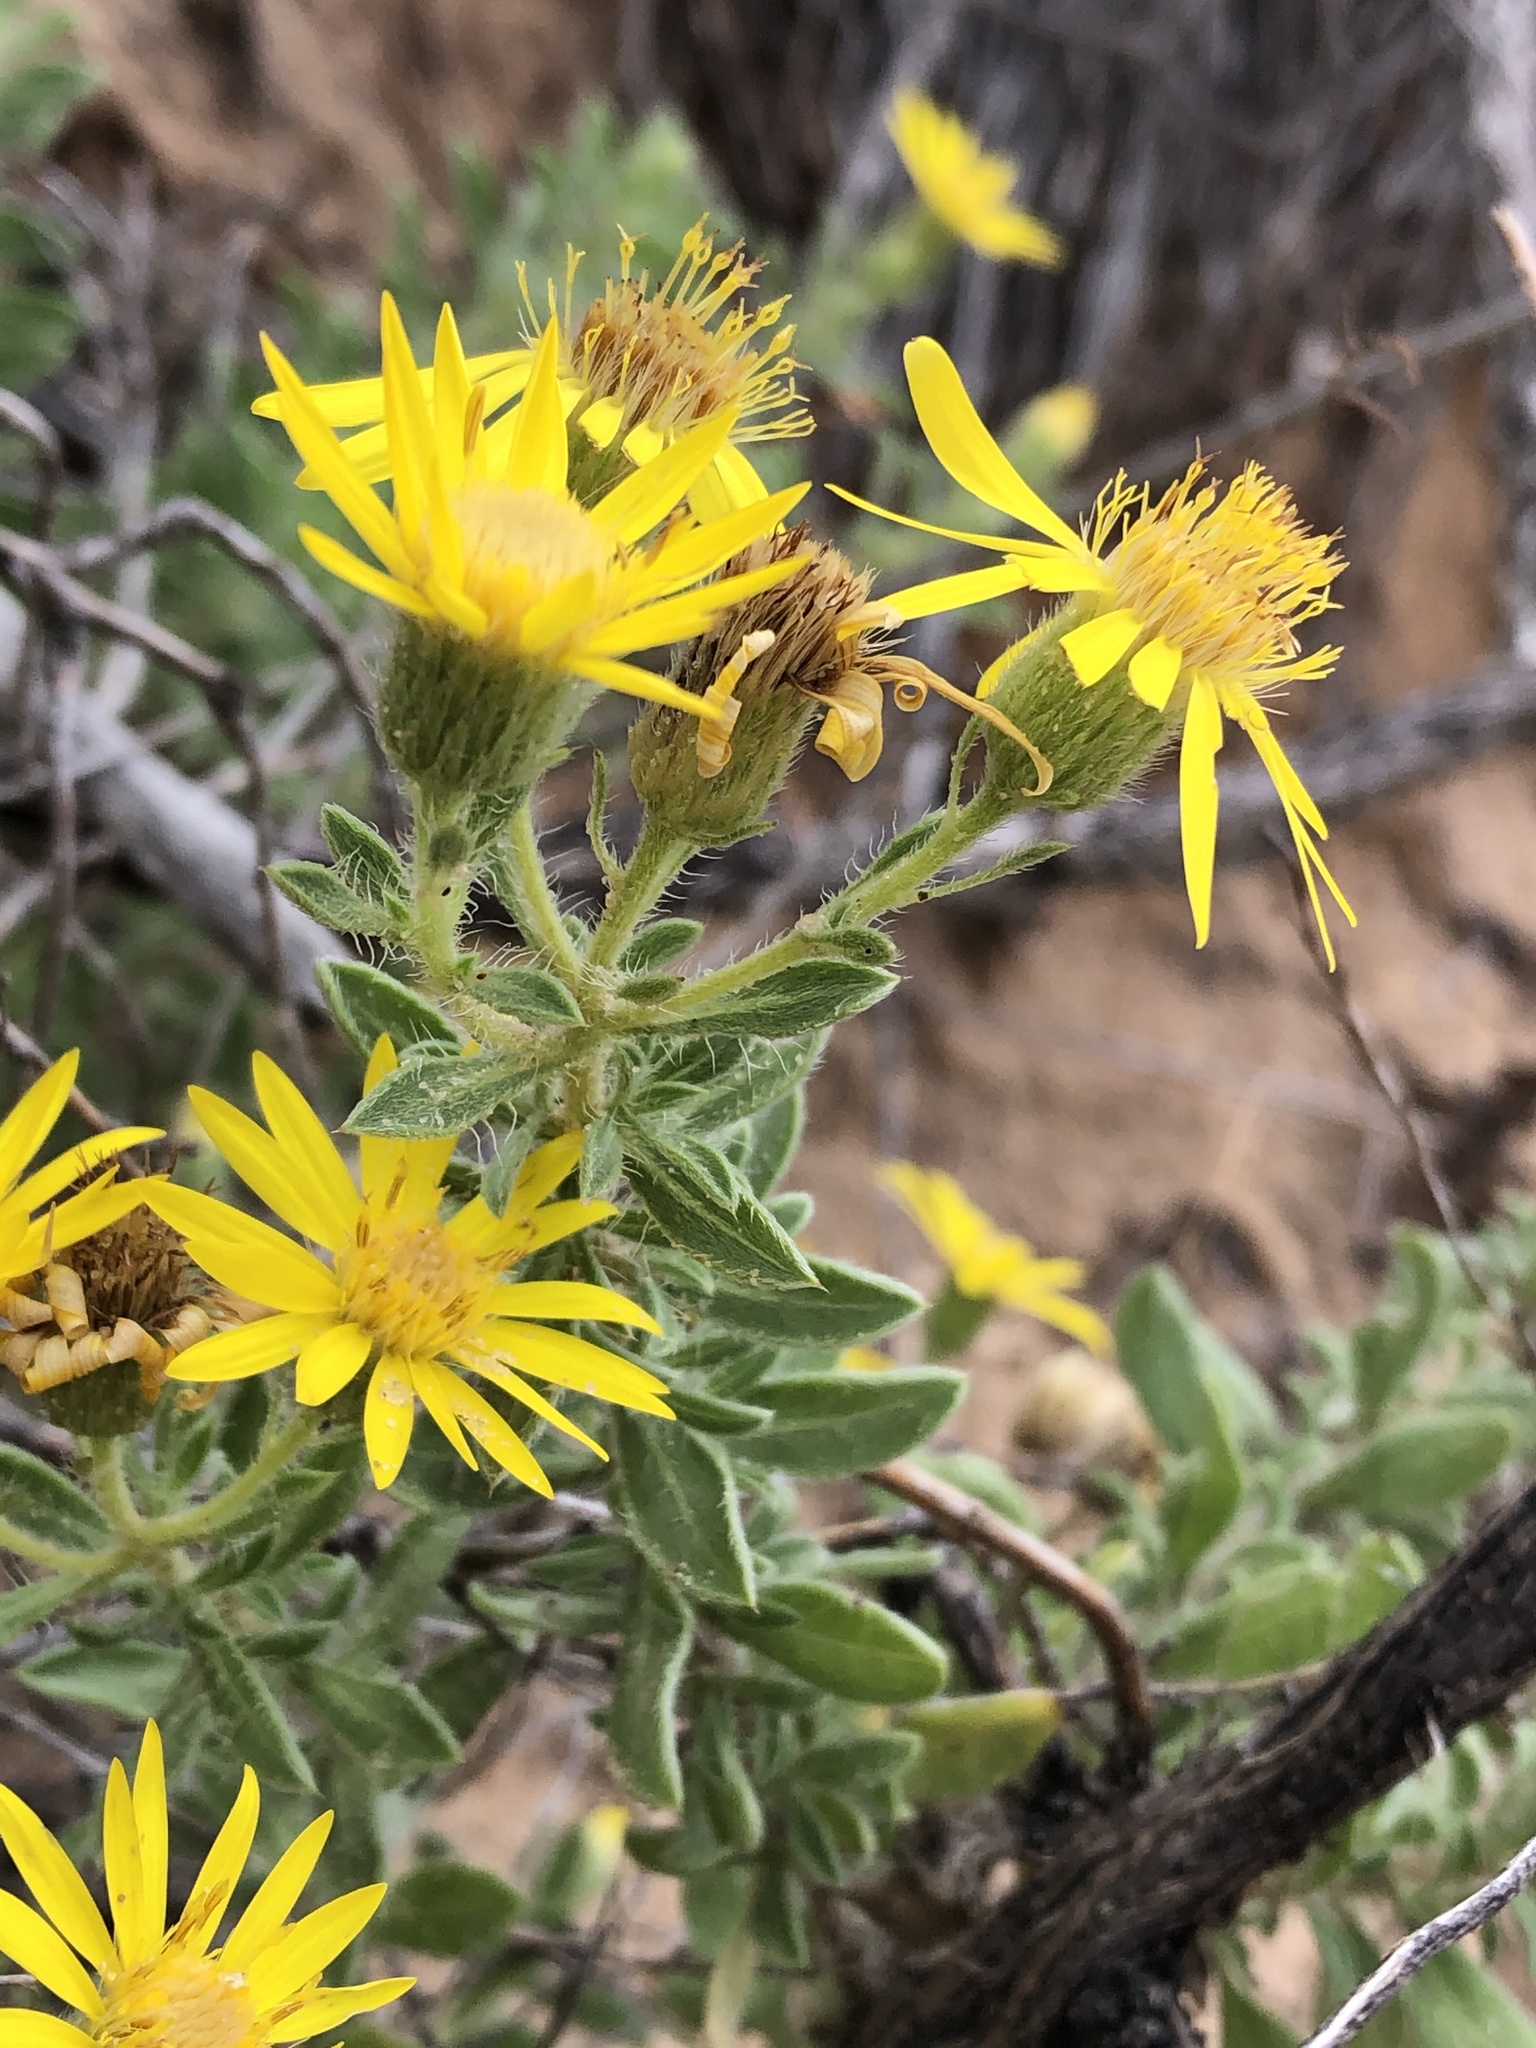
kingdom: Plantae
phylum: Tracheophyta
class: Magnoliopsida
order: Asterales
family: Asteraceae
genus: Heterotheca
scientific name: Heterotheca angustifolia
